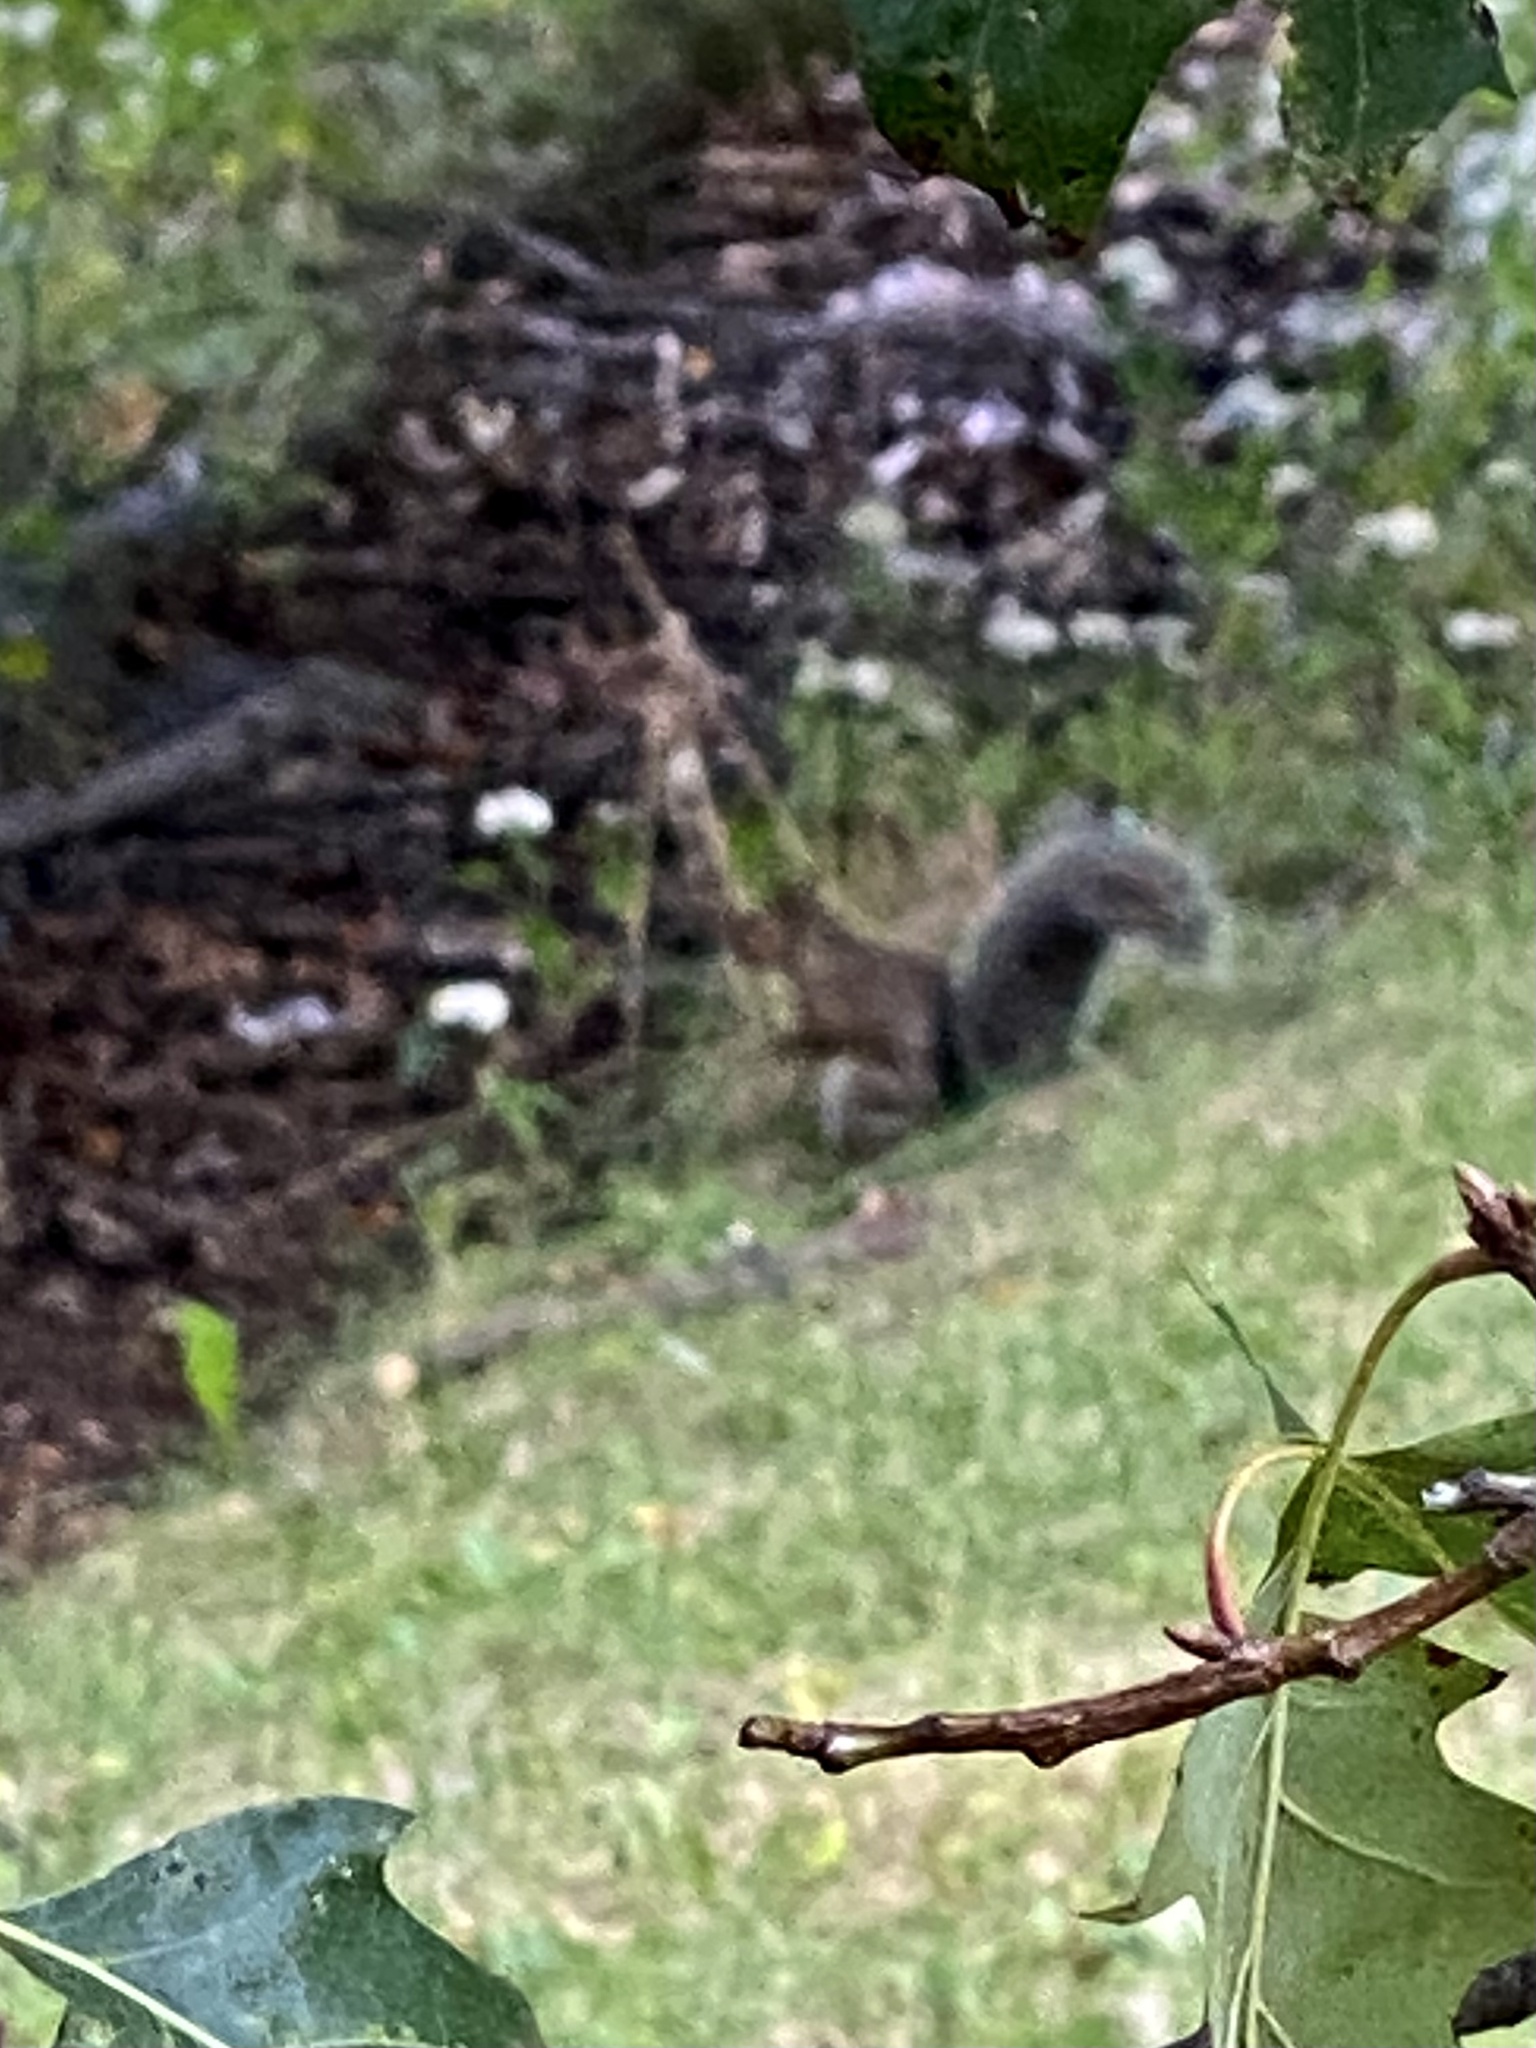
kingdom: Animalia
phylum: Chordata
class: Mammalia
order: Rodentia
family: Sciuridae
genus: Sciurus
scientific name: Sciurus carolinensis
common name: Eastern gray squirrel
